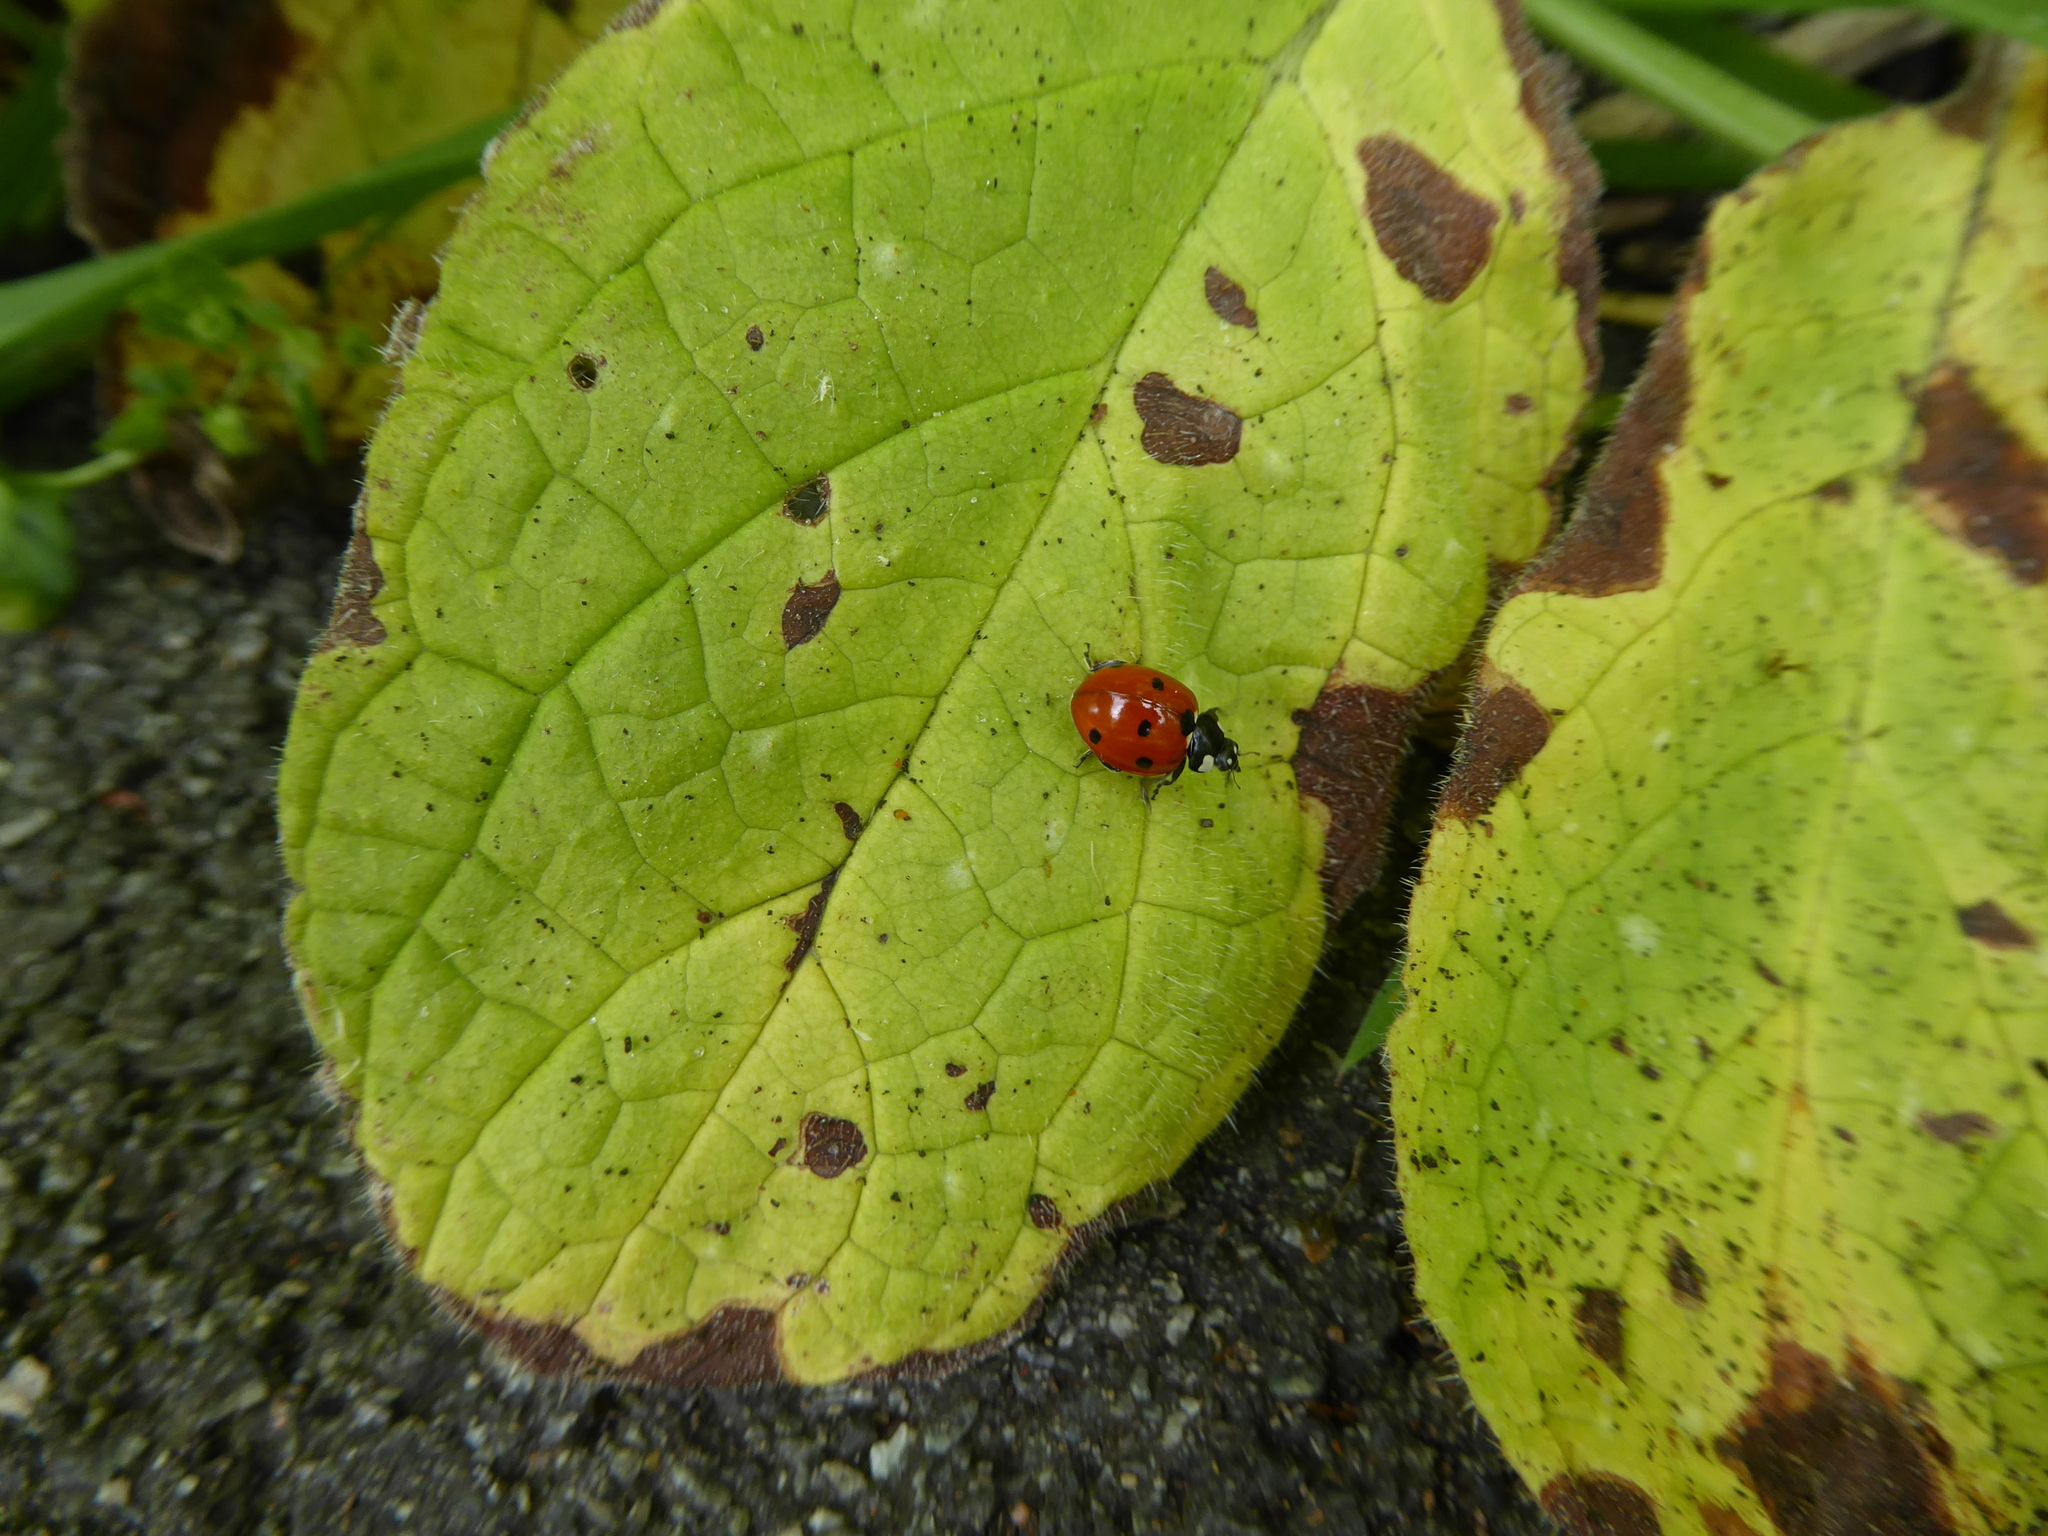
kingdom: Animalia
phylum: Arthropoda
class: Insecta
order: Coleoptera
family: Coccinellidae
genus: Coccinella
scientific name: Coccinella septempunctata
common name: Sevenspotted lady beetle
